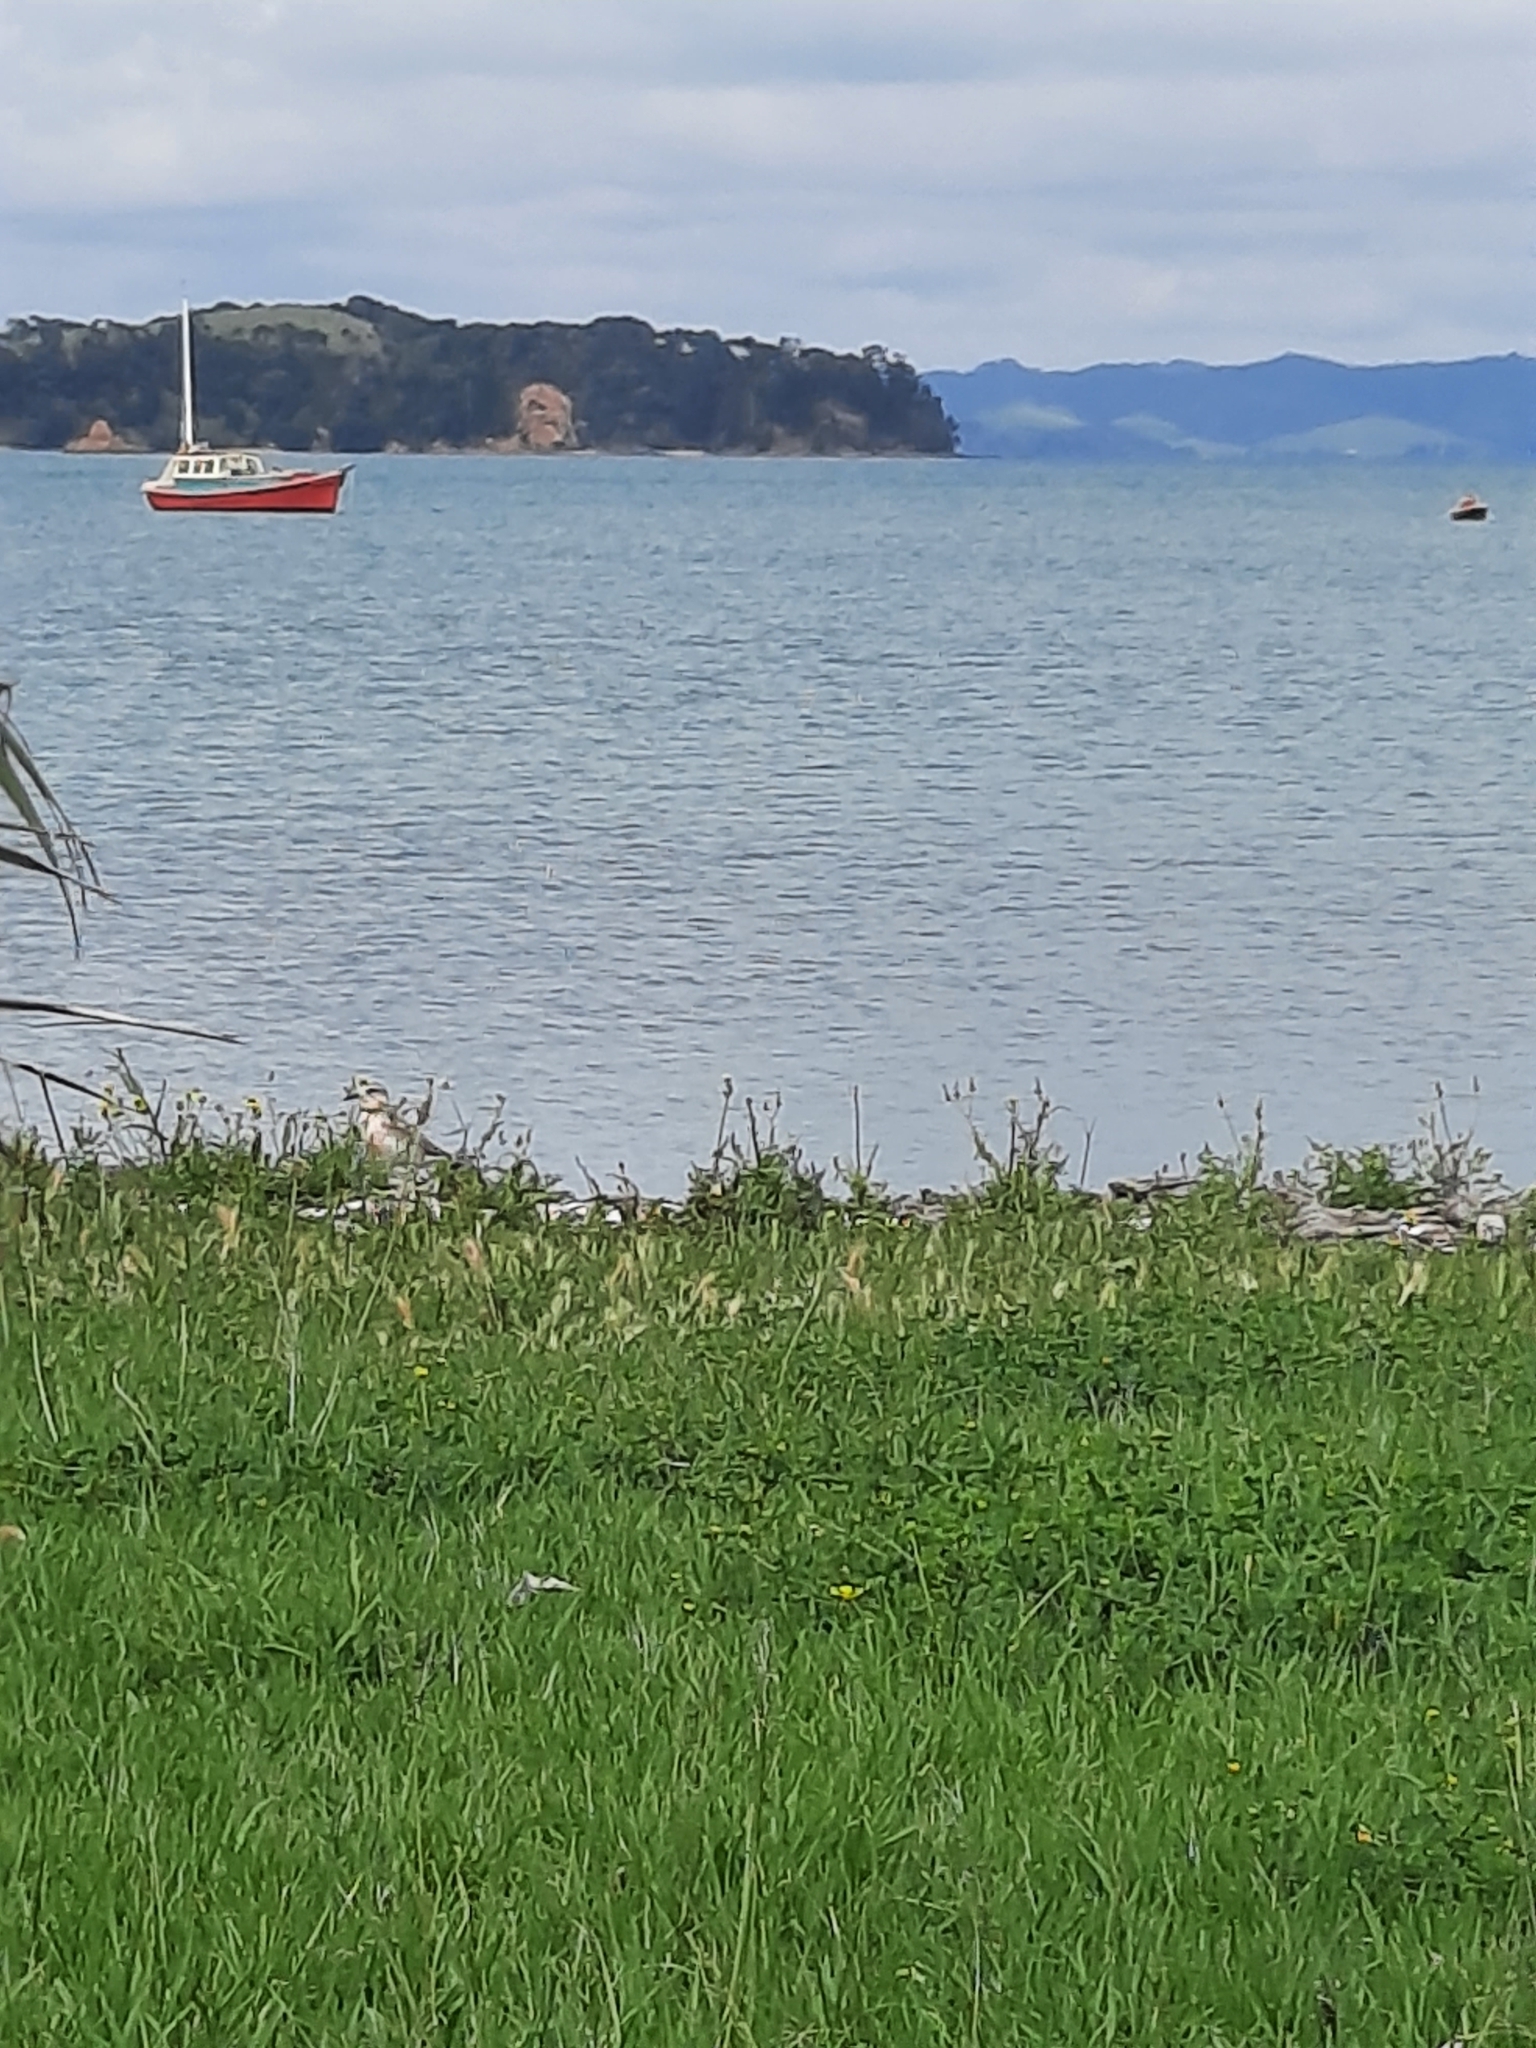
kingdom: Animalia
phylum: Chordata
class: Aves
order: Charadriiformes
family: Charadriidae
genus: Anarhynchus
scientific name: Anarhynchus
